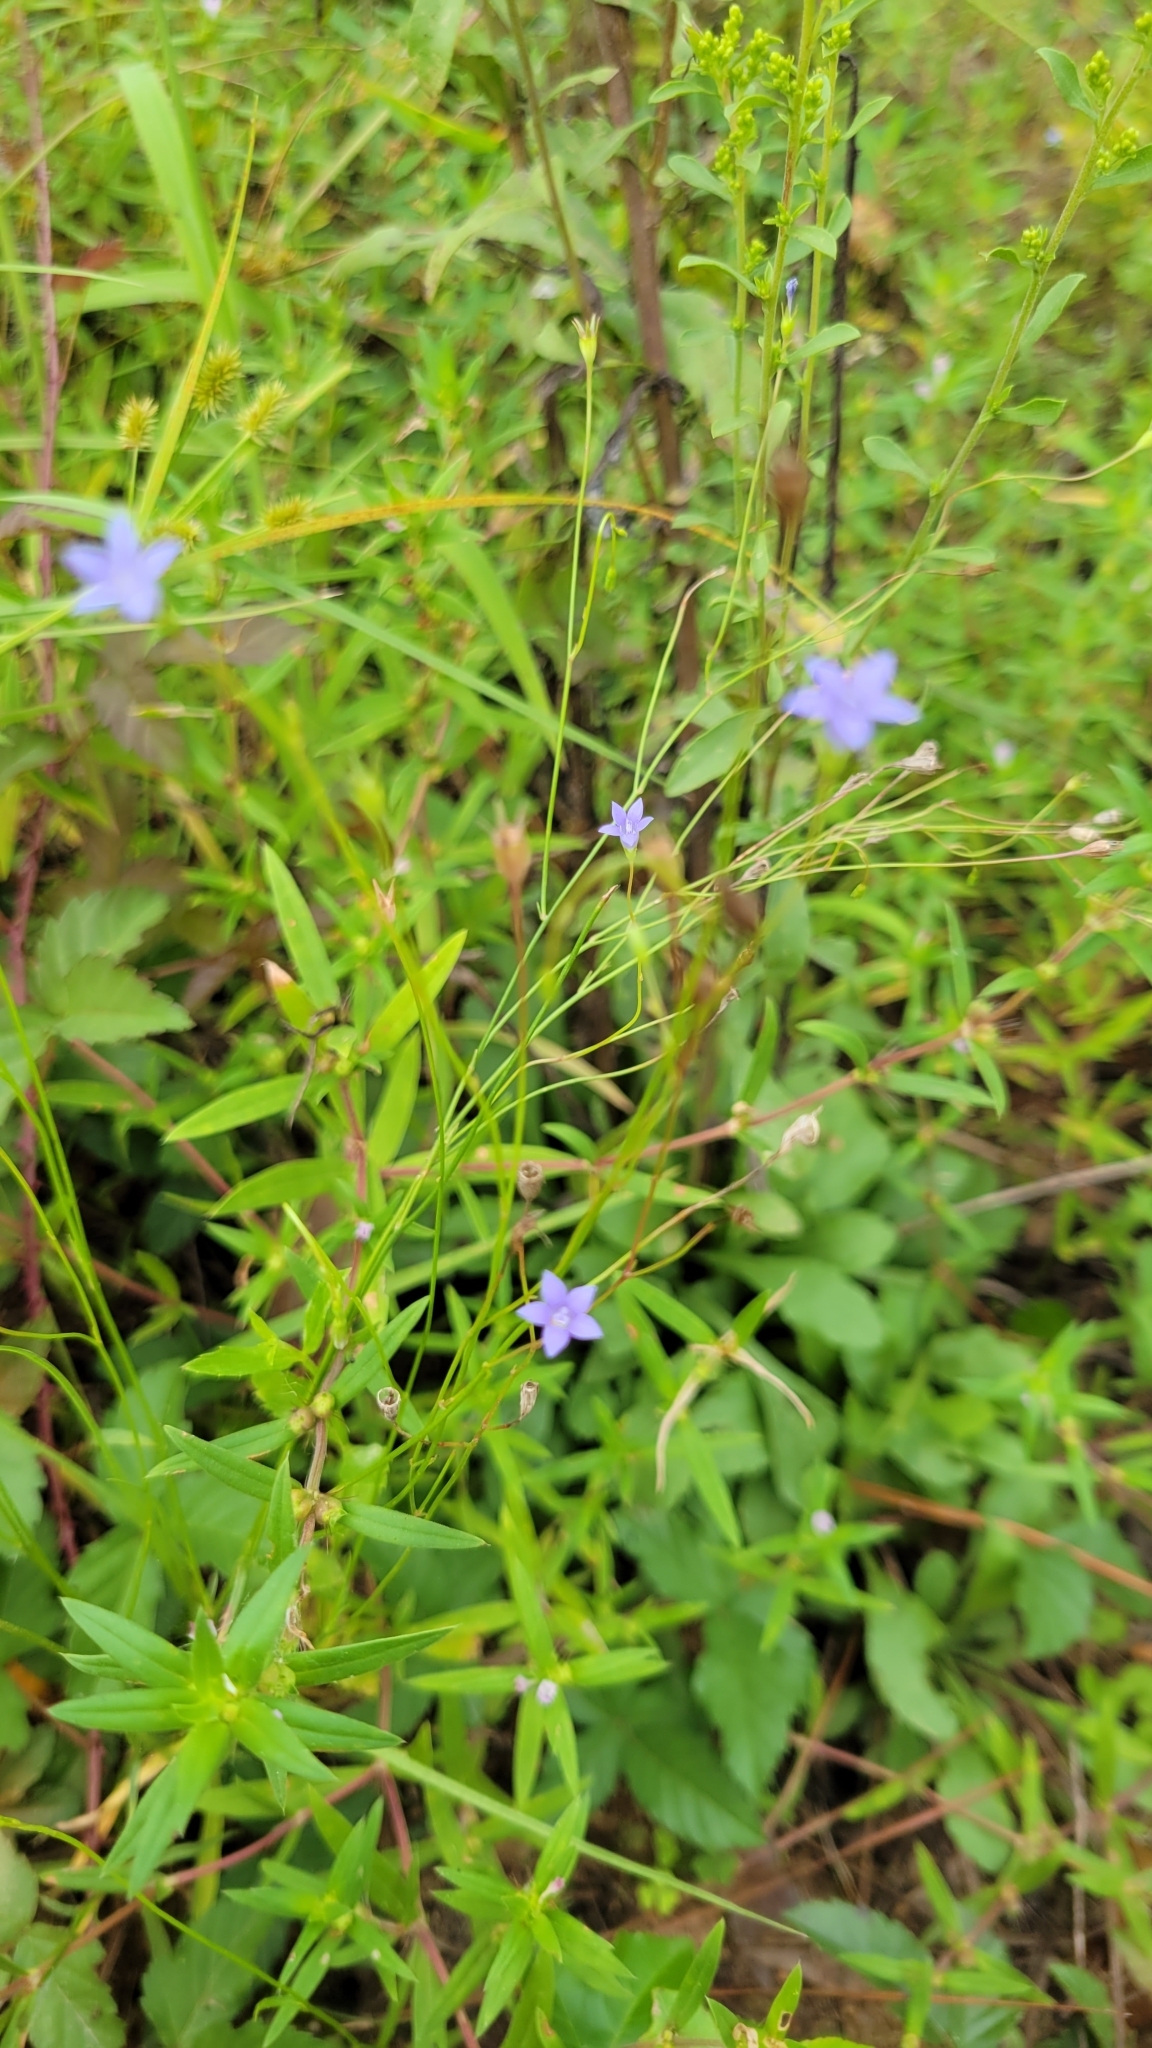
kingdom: Plantae
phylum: Tracheophyta
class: Magnoliopsida
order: Asterales
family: Campanulaceae
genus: Wahlenbergia
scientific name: Wahlenbergia marginata
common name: Southern rockbell
